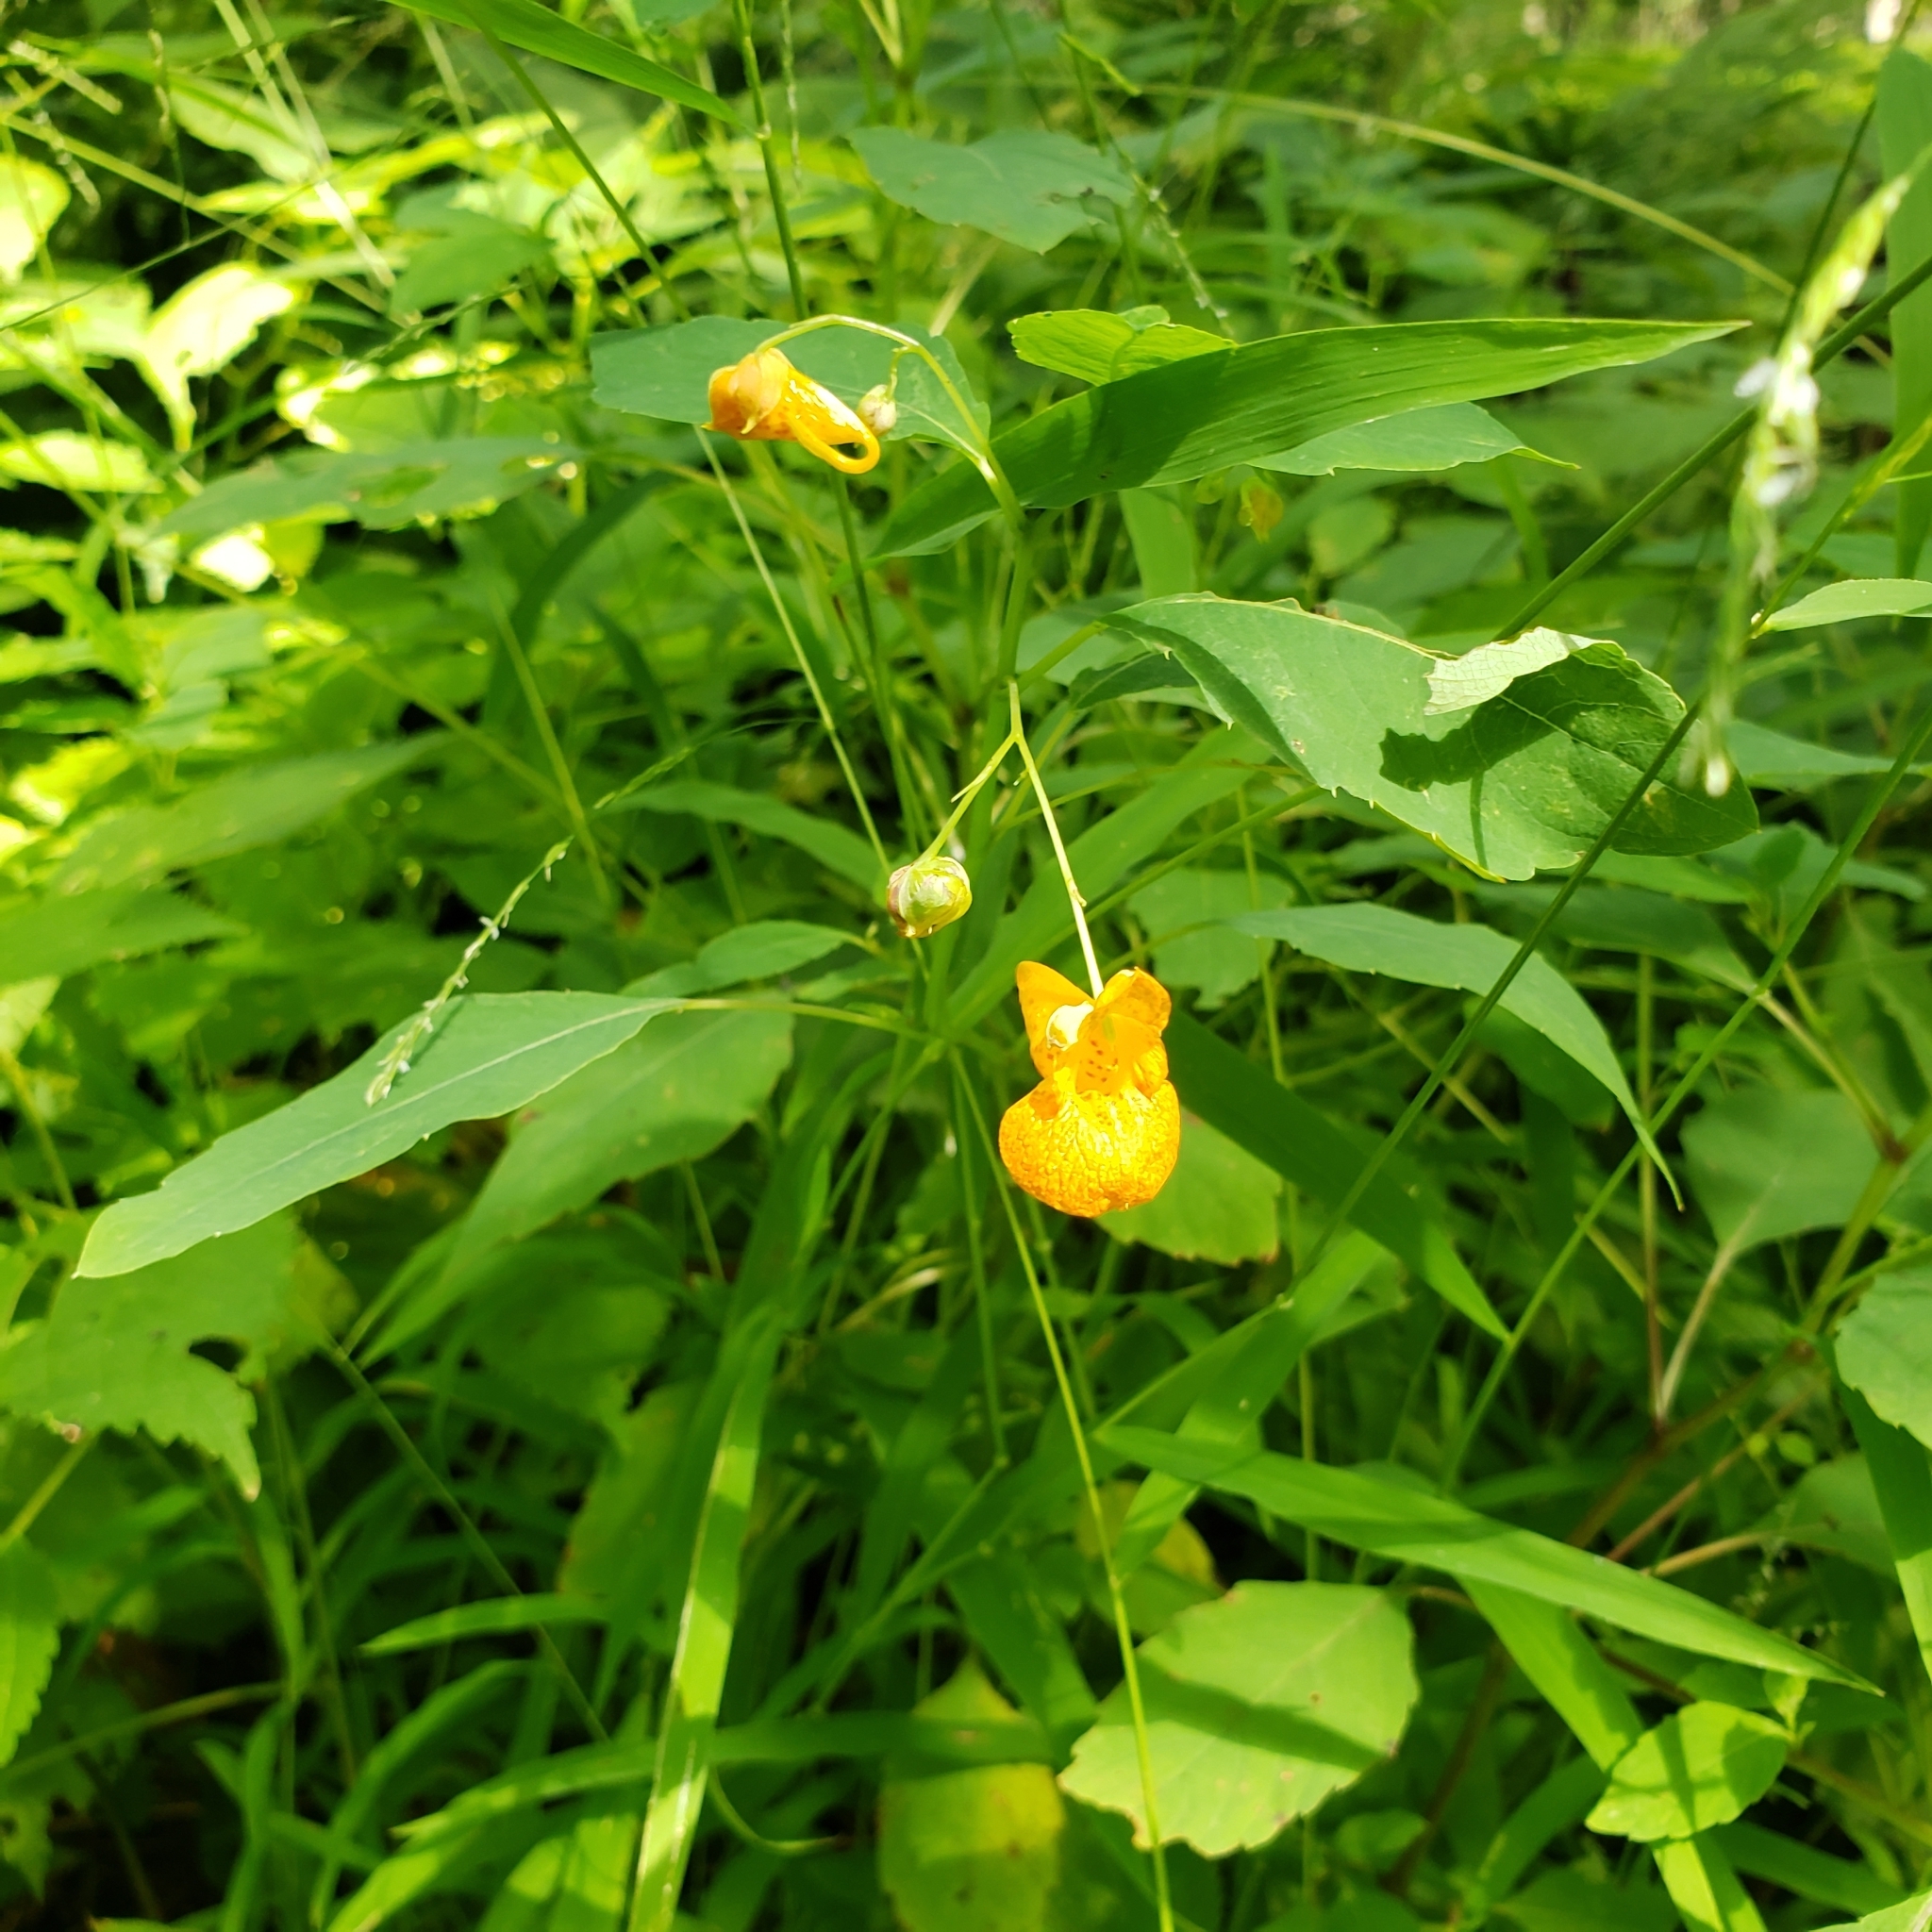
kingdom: Plantae
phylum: Tracheophyta
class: Magnoliopsida
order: Ericales
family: Balsaminaceae
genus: Impatiens
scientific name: Impatiens capensis
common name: Orange balsam
